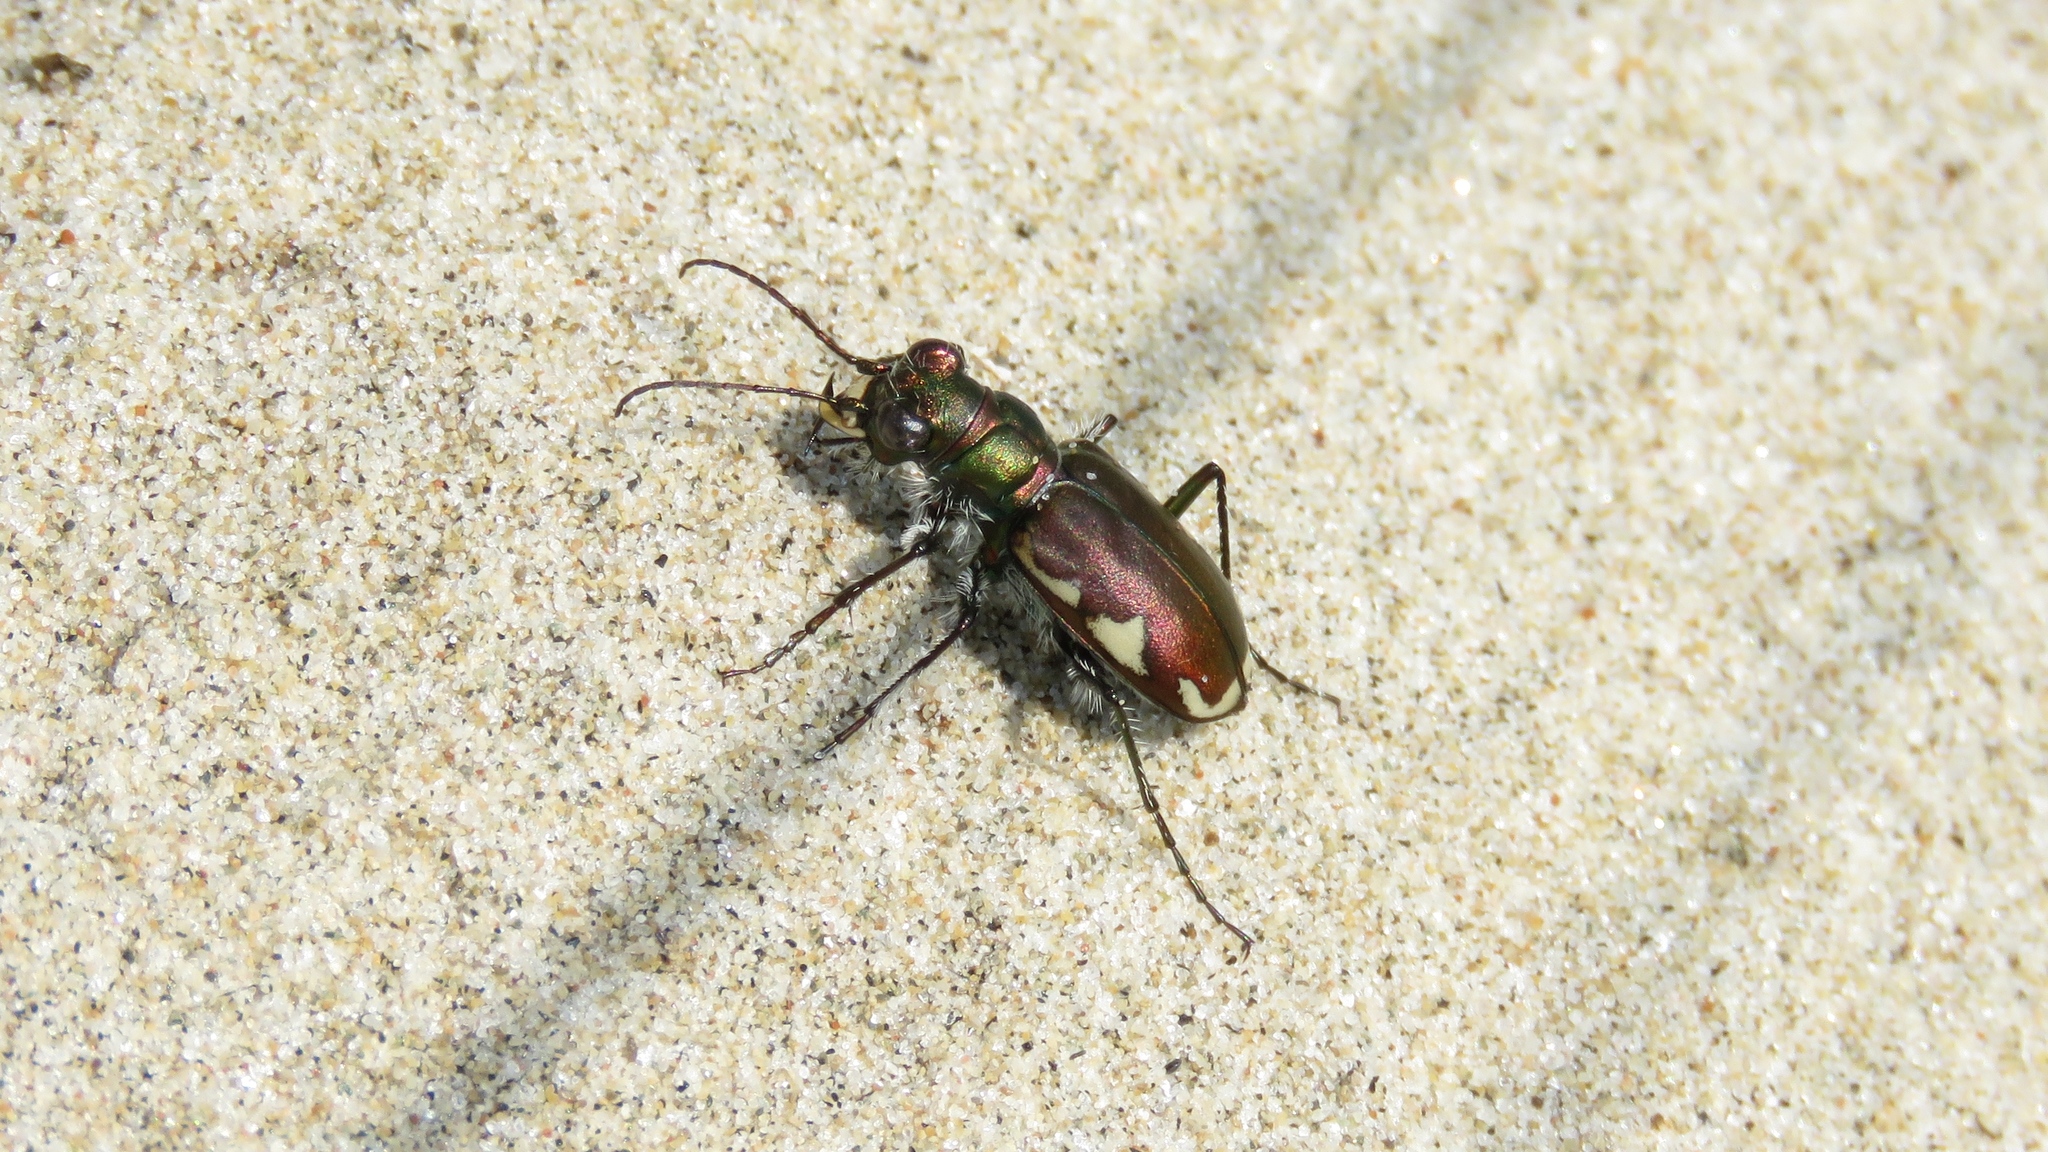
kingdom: Animalia
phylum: Arthropoda
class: Insecta
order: Coleoptera
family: Carabidae
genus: Cicindela
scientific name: Cicindela scutellaris
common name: Festive tiger beetle
